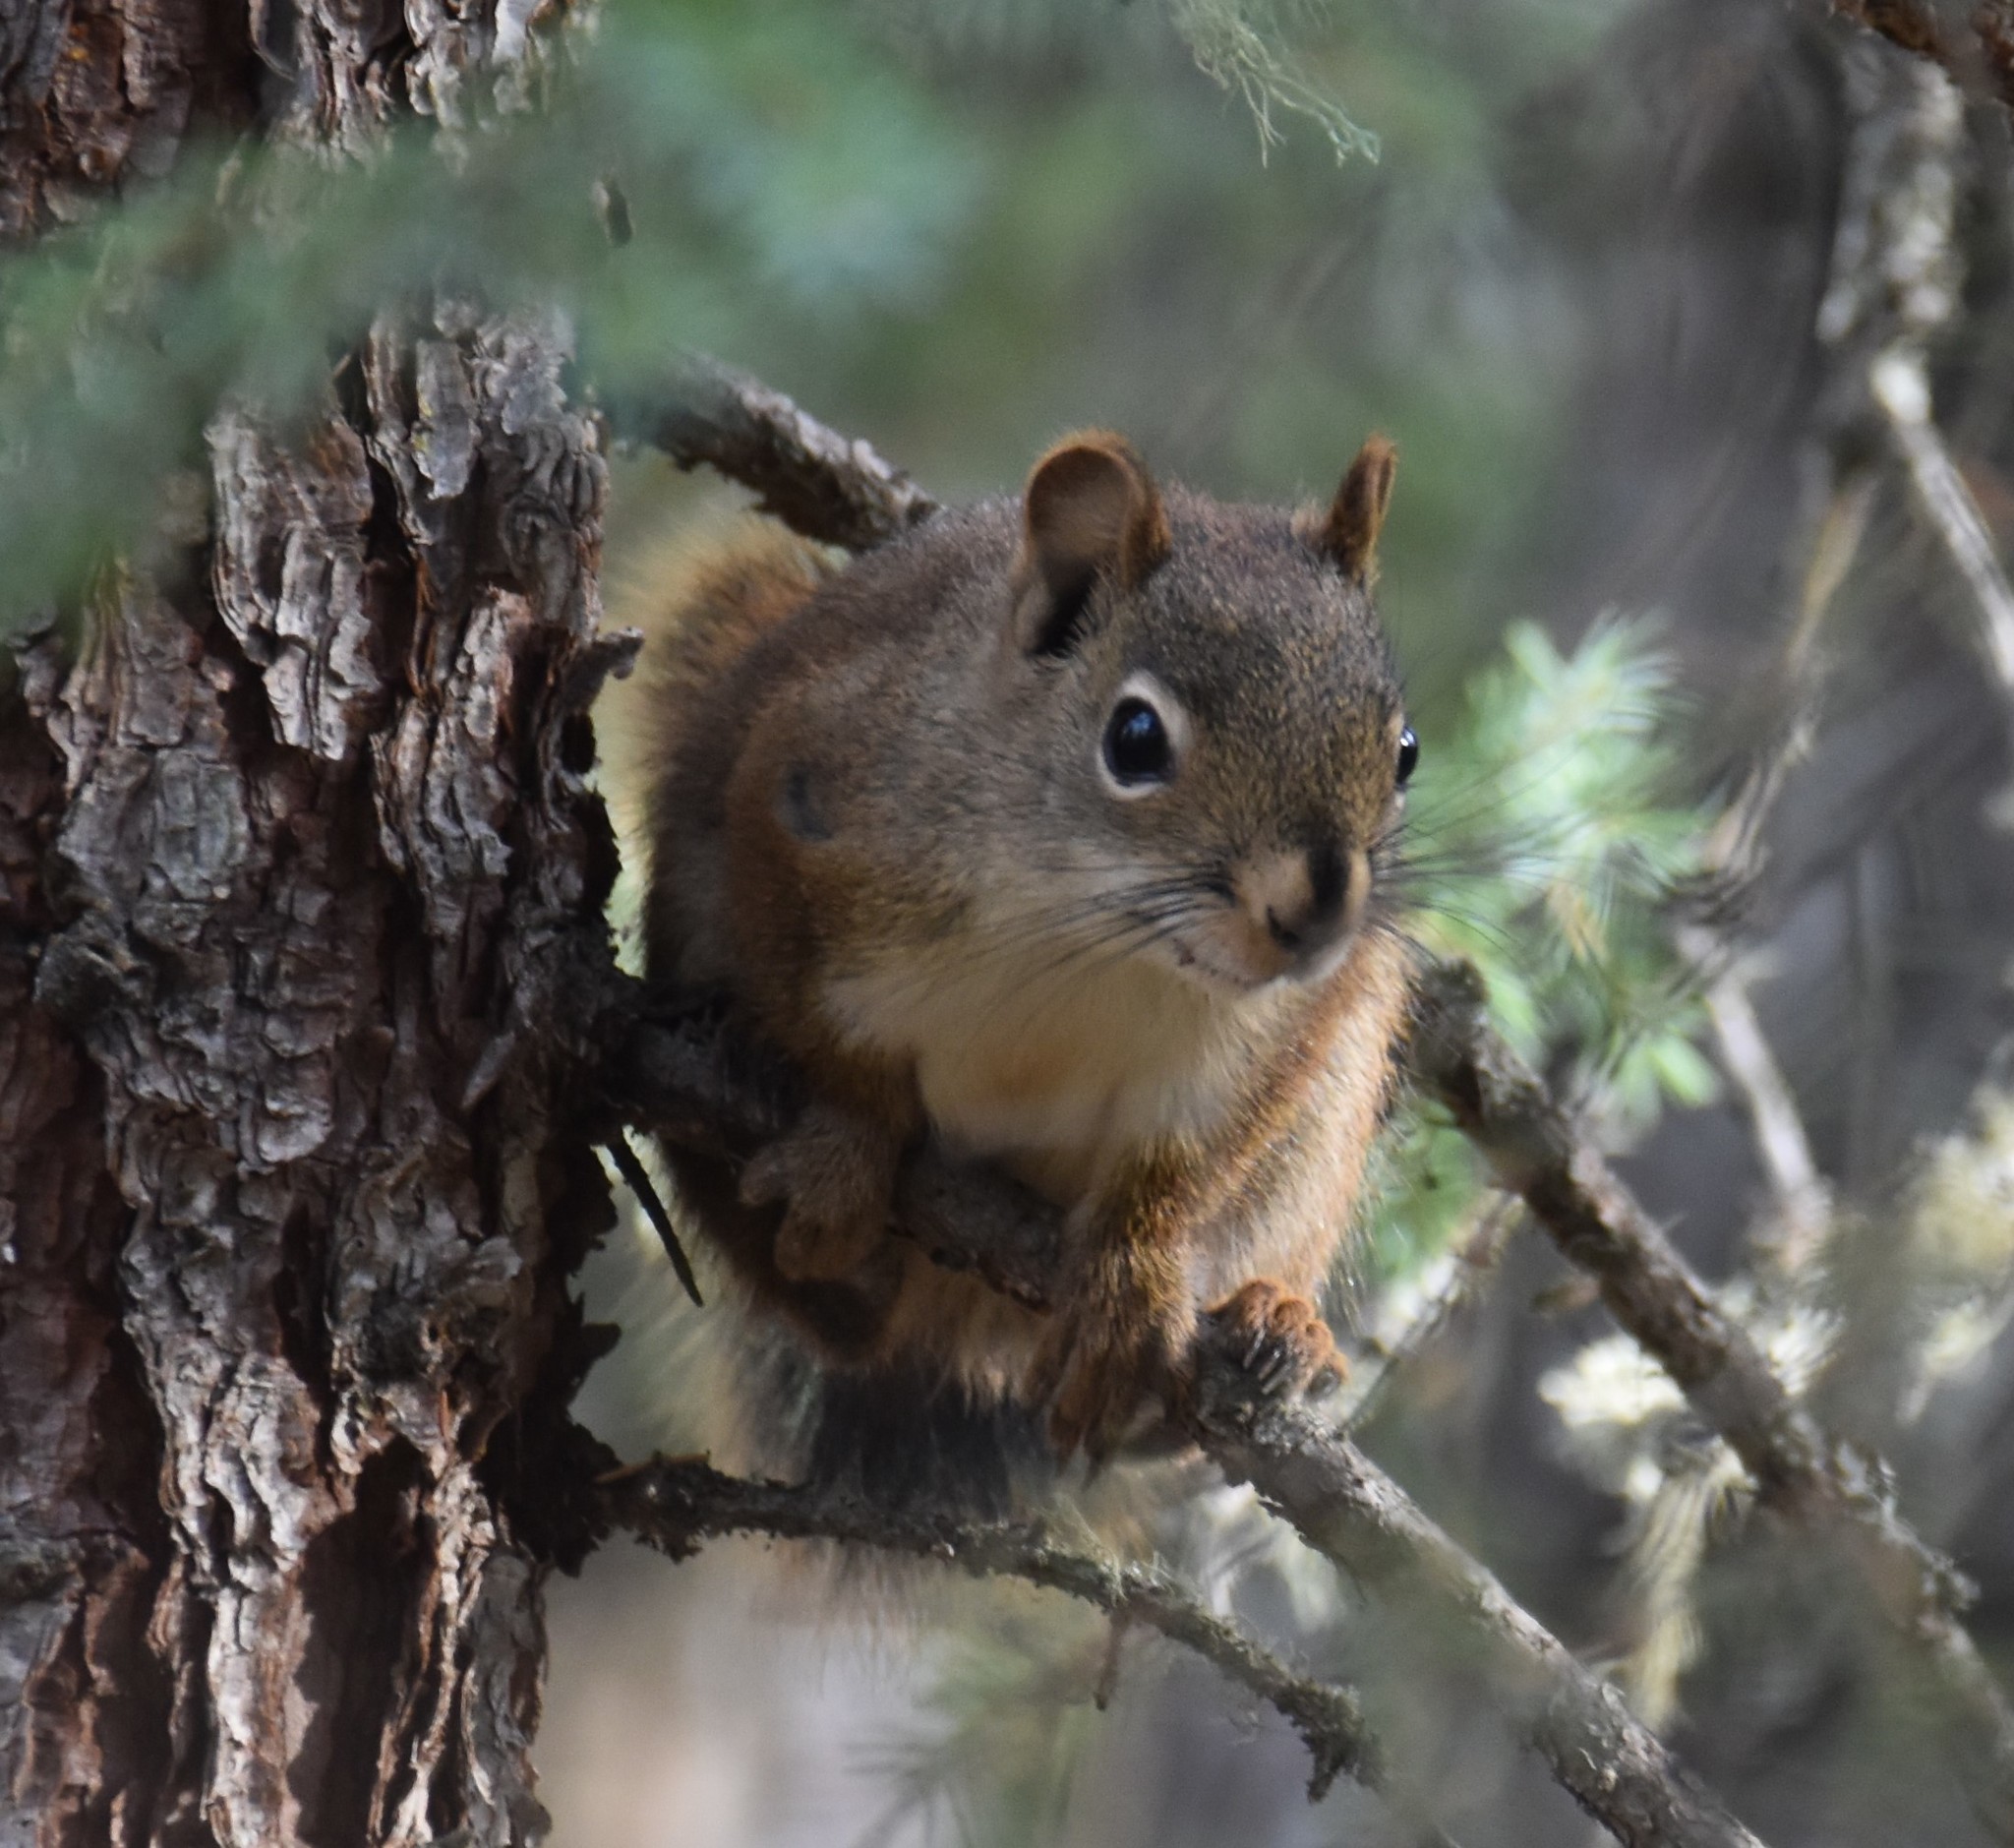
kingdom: Animalia
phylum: Chordata
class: Mammalia
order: Rodentia
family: Sciuridae
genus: Tamiasciurus
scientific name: Tamiasciurus hudsonicus
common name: Red squirrel
